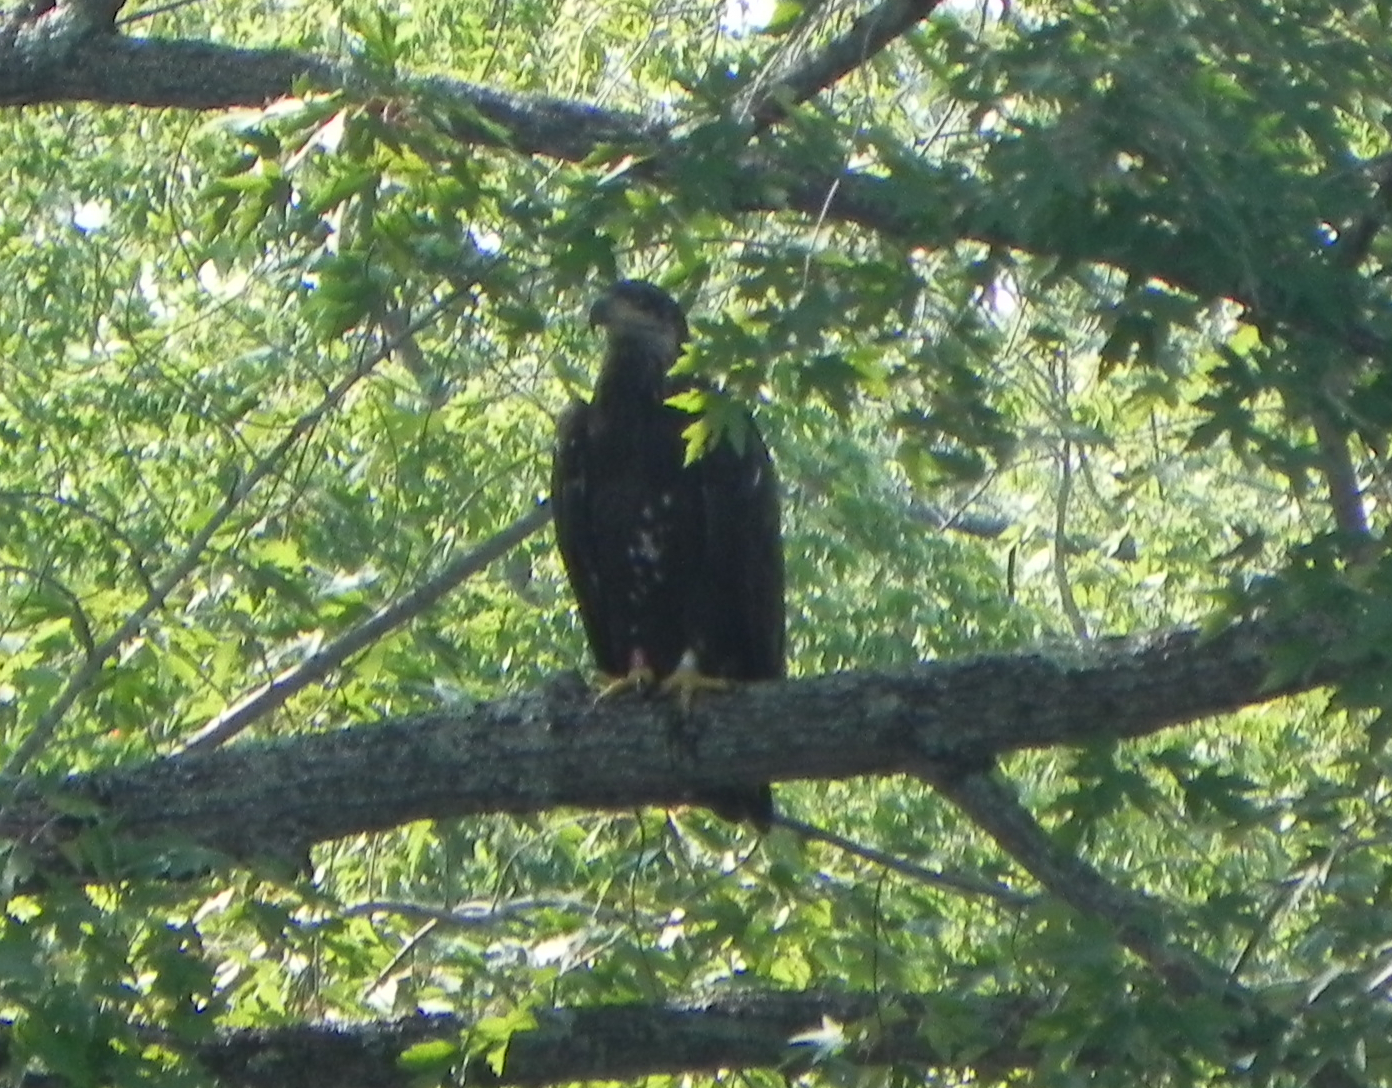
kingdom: Animalia
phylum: Chordata
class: Aves
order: Accipitriformes
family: Accipitridae
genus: Haliaeetus
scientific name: Haliaeetus leucocephalus
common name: Bald eagle
